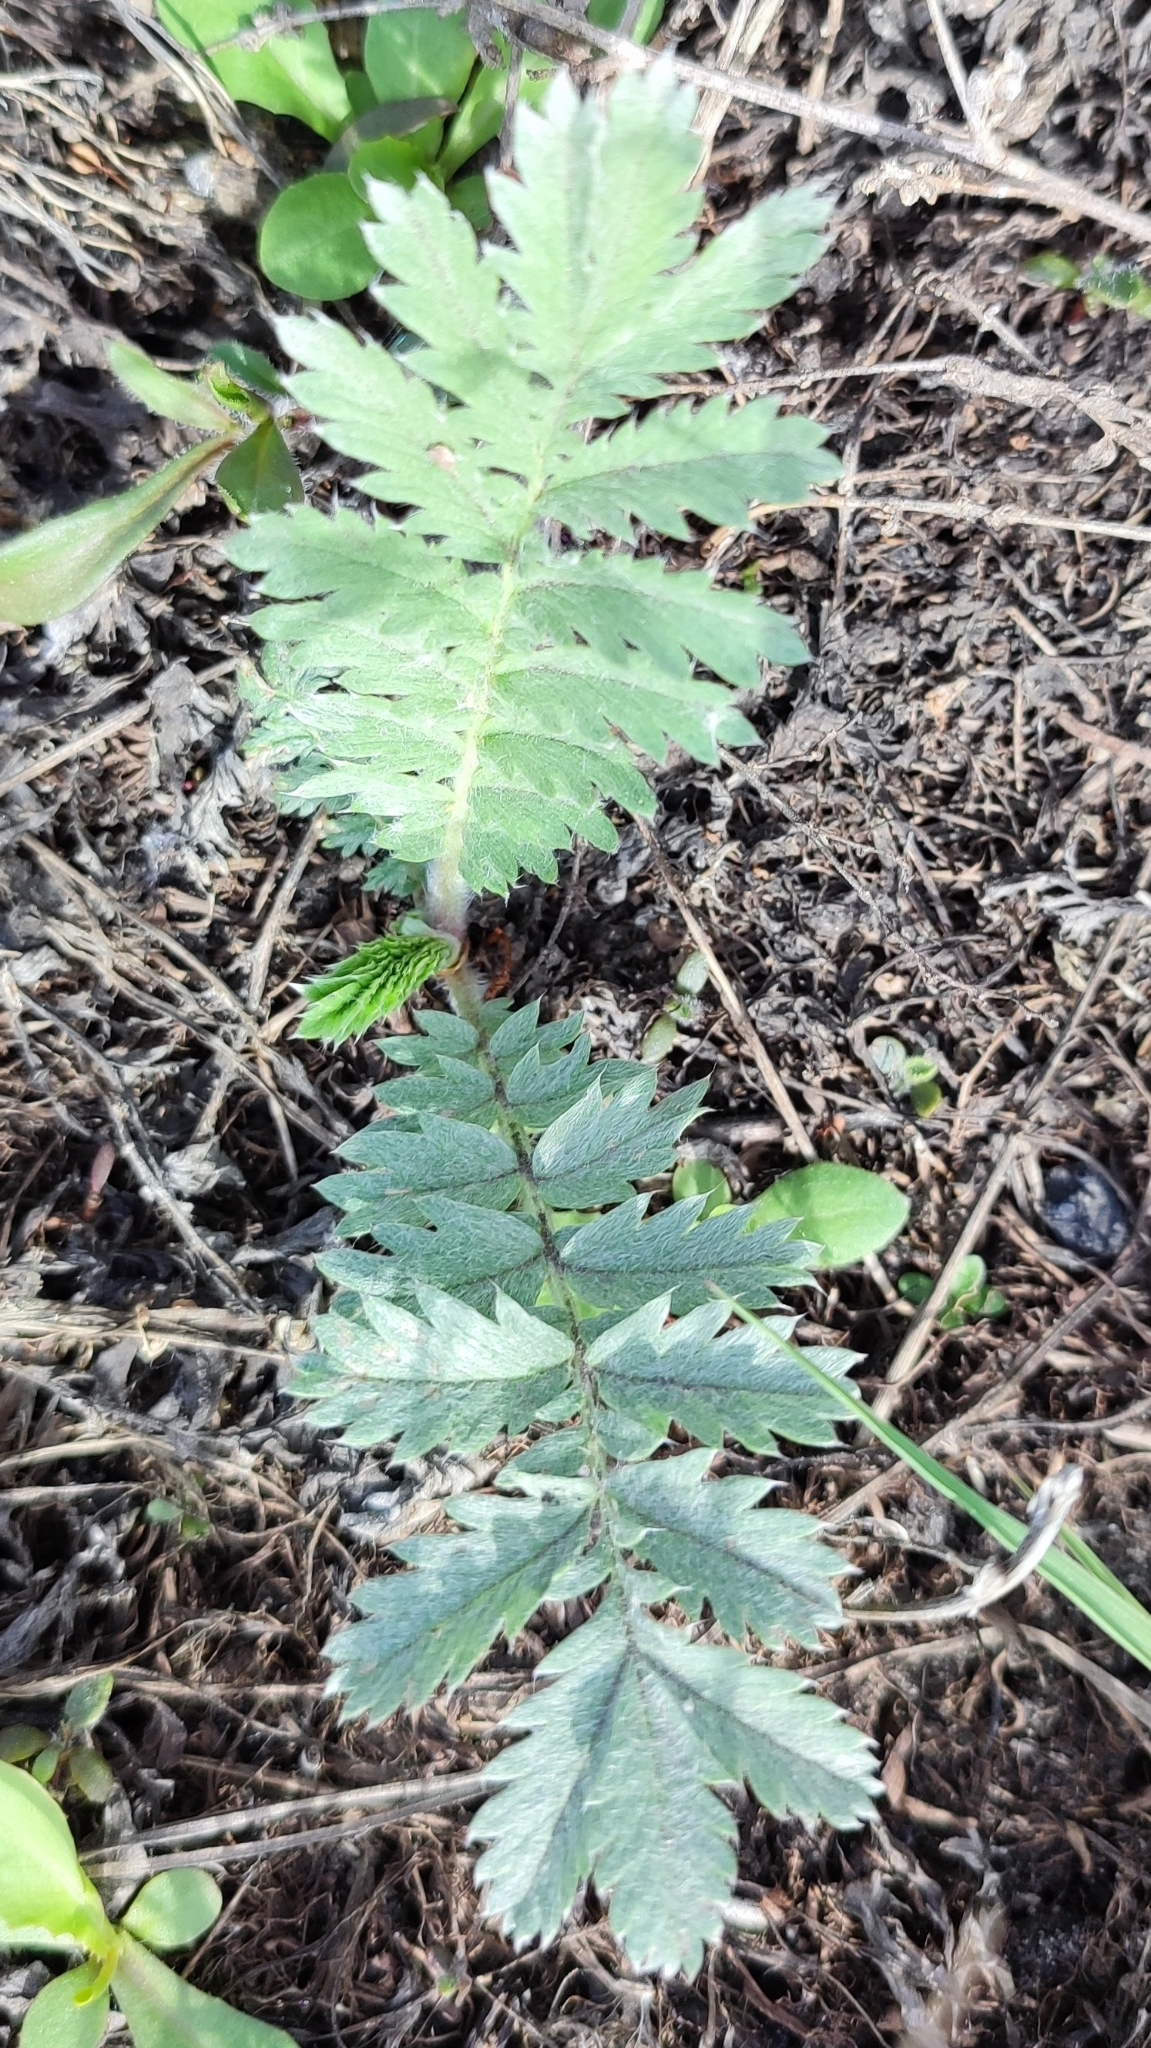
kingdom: Plantae
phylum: Tracheophyta
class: Magnoliopsida
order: Rosales
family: Rosaceae
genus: Argentina
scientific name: Argentina anserina
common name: Common silverweed
